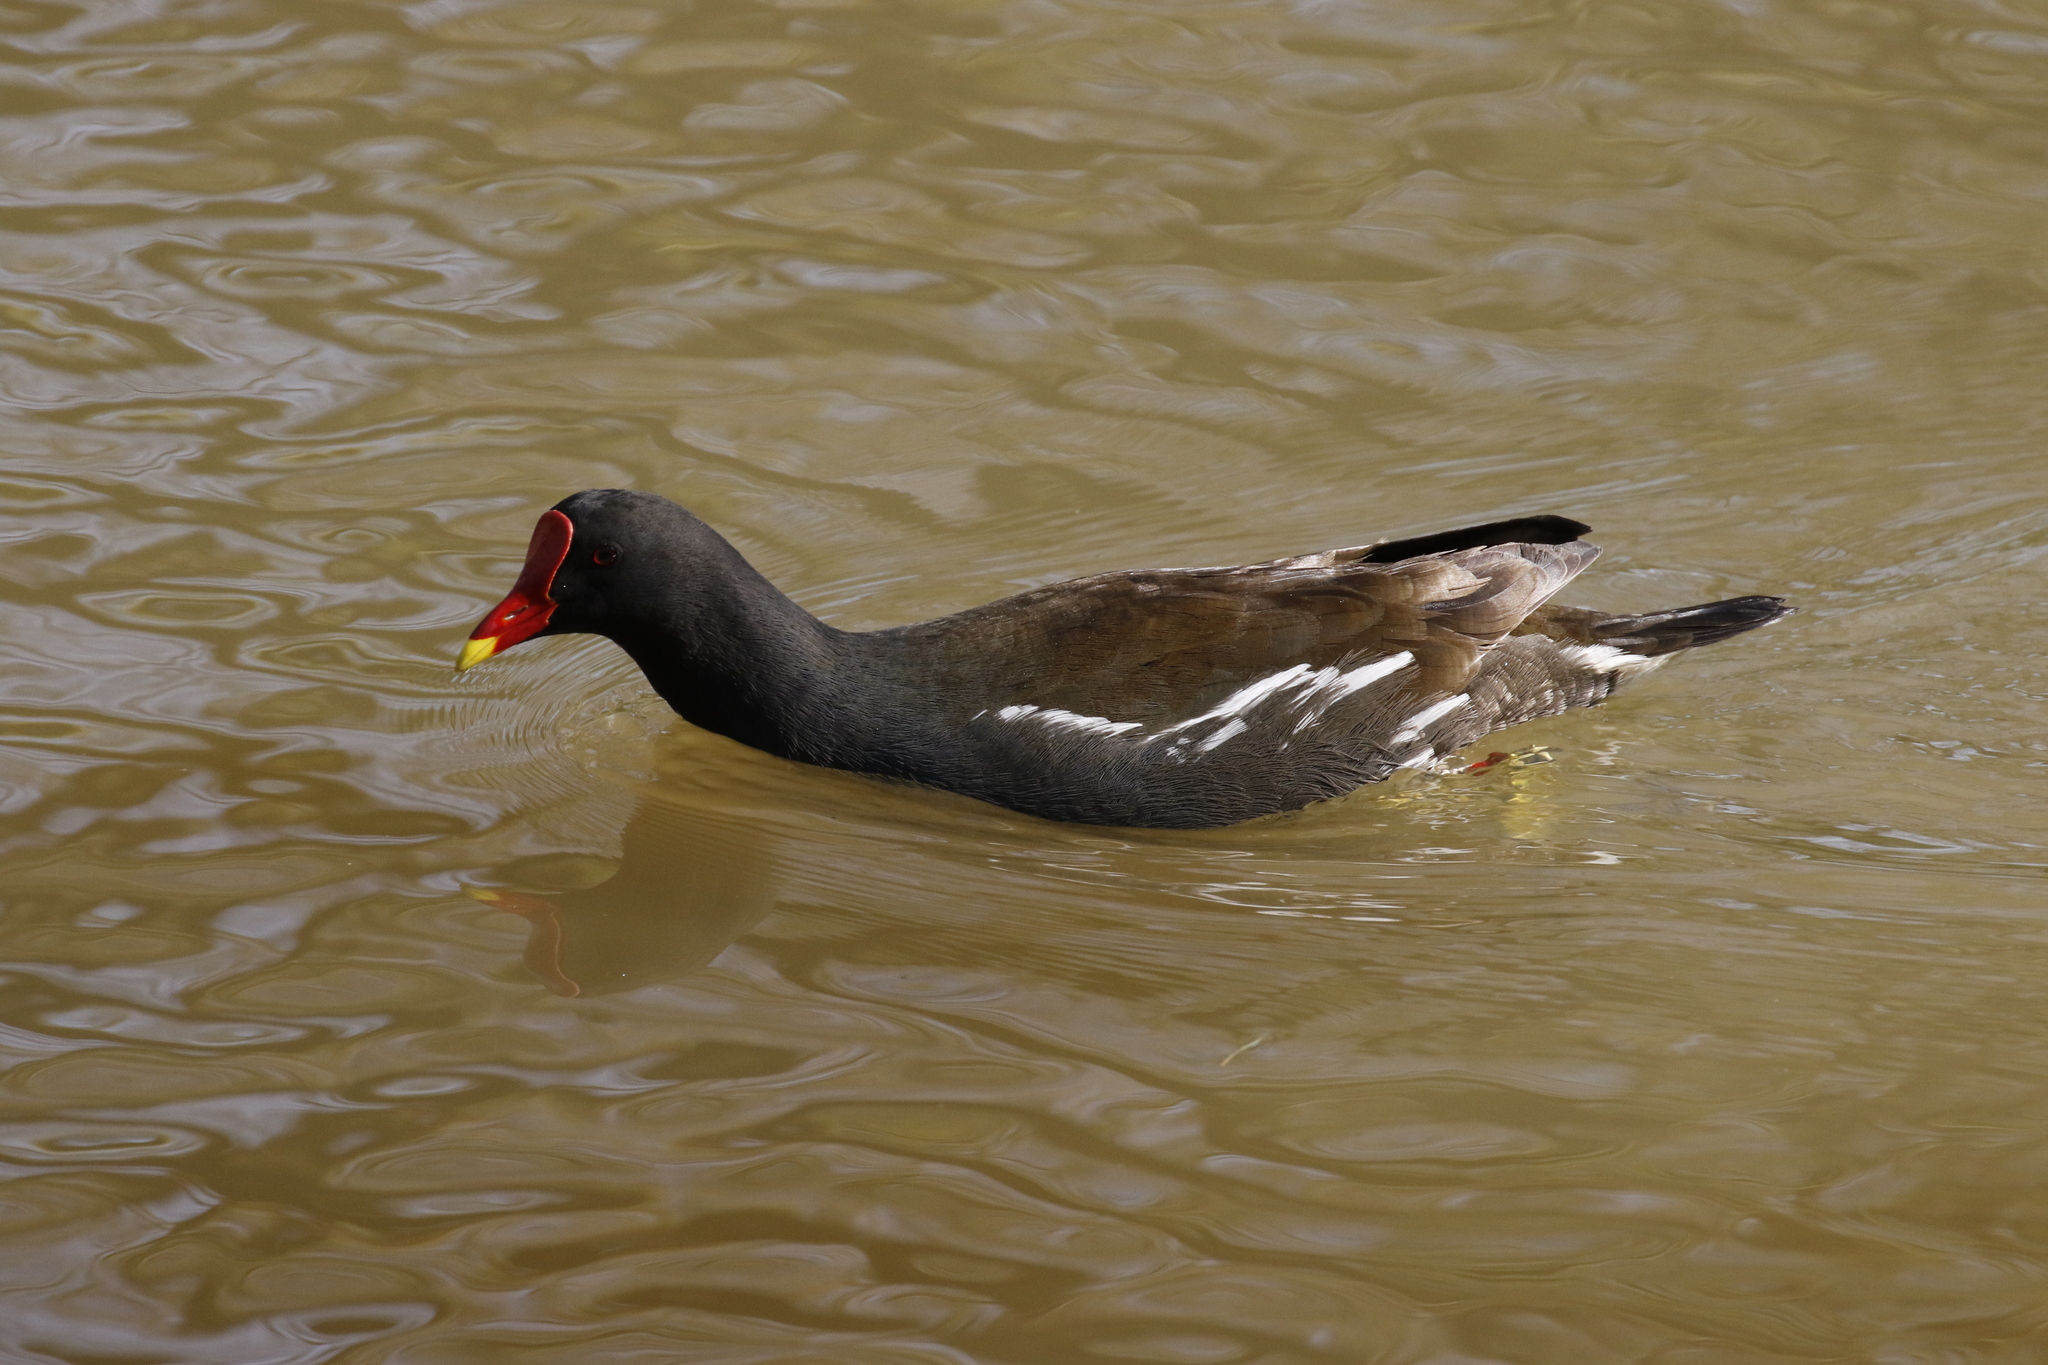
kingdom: Animalia
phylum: Chordata
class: Aves
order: Gruiformes
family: Rallidae
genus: Gallinula
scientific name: Gallinula chloropus
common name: Common moorhen
